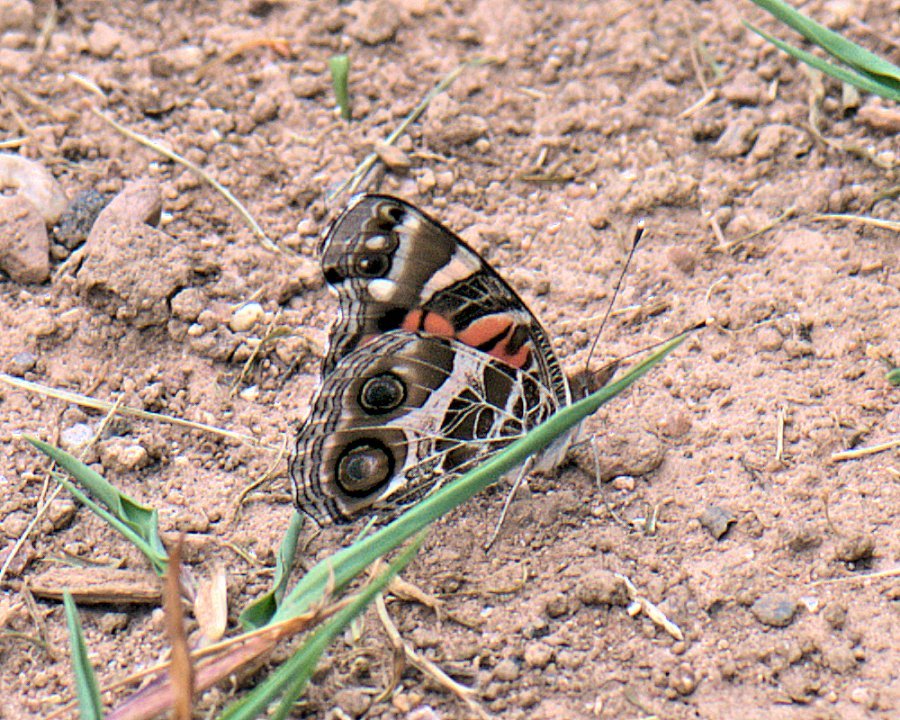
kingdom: Animalia
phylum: Arthropoda
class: Insecta
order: Lepidoptera
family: Nymphalidae
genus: Vanessa
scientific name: Vanessa virginiensis
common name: American lady
